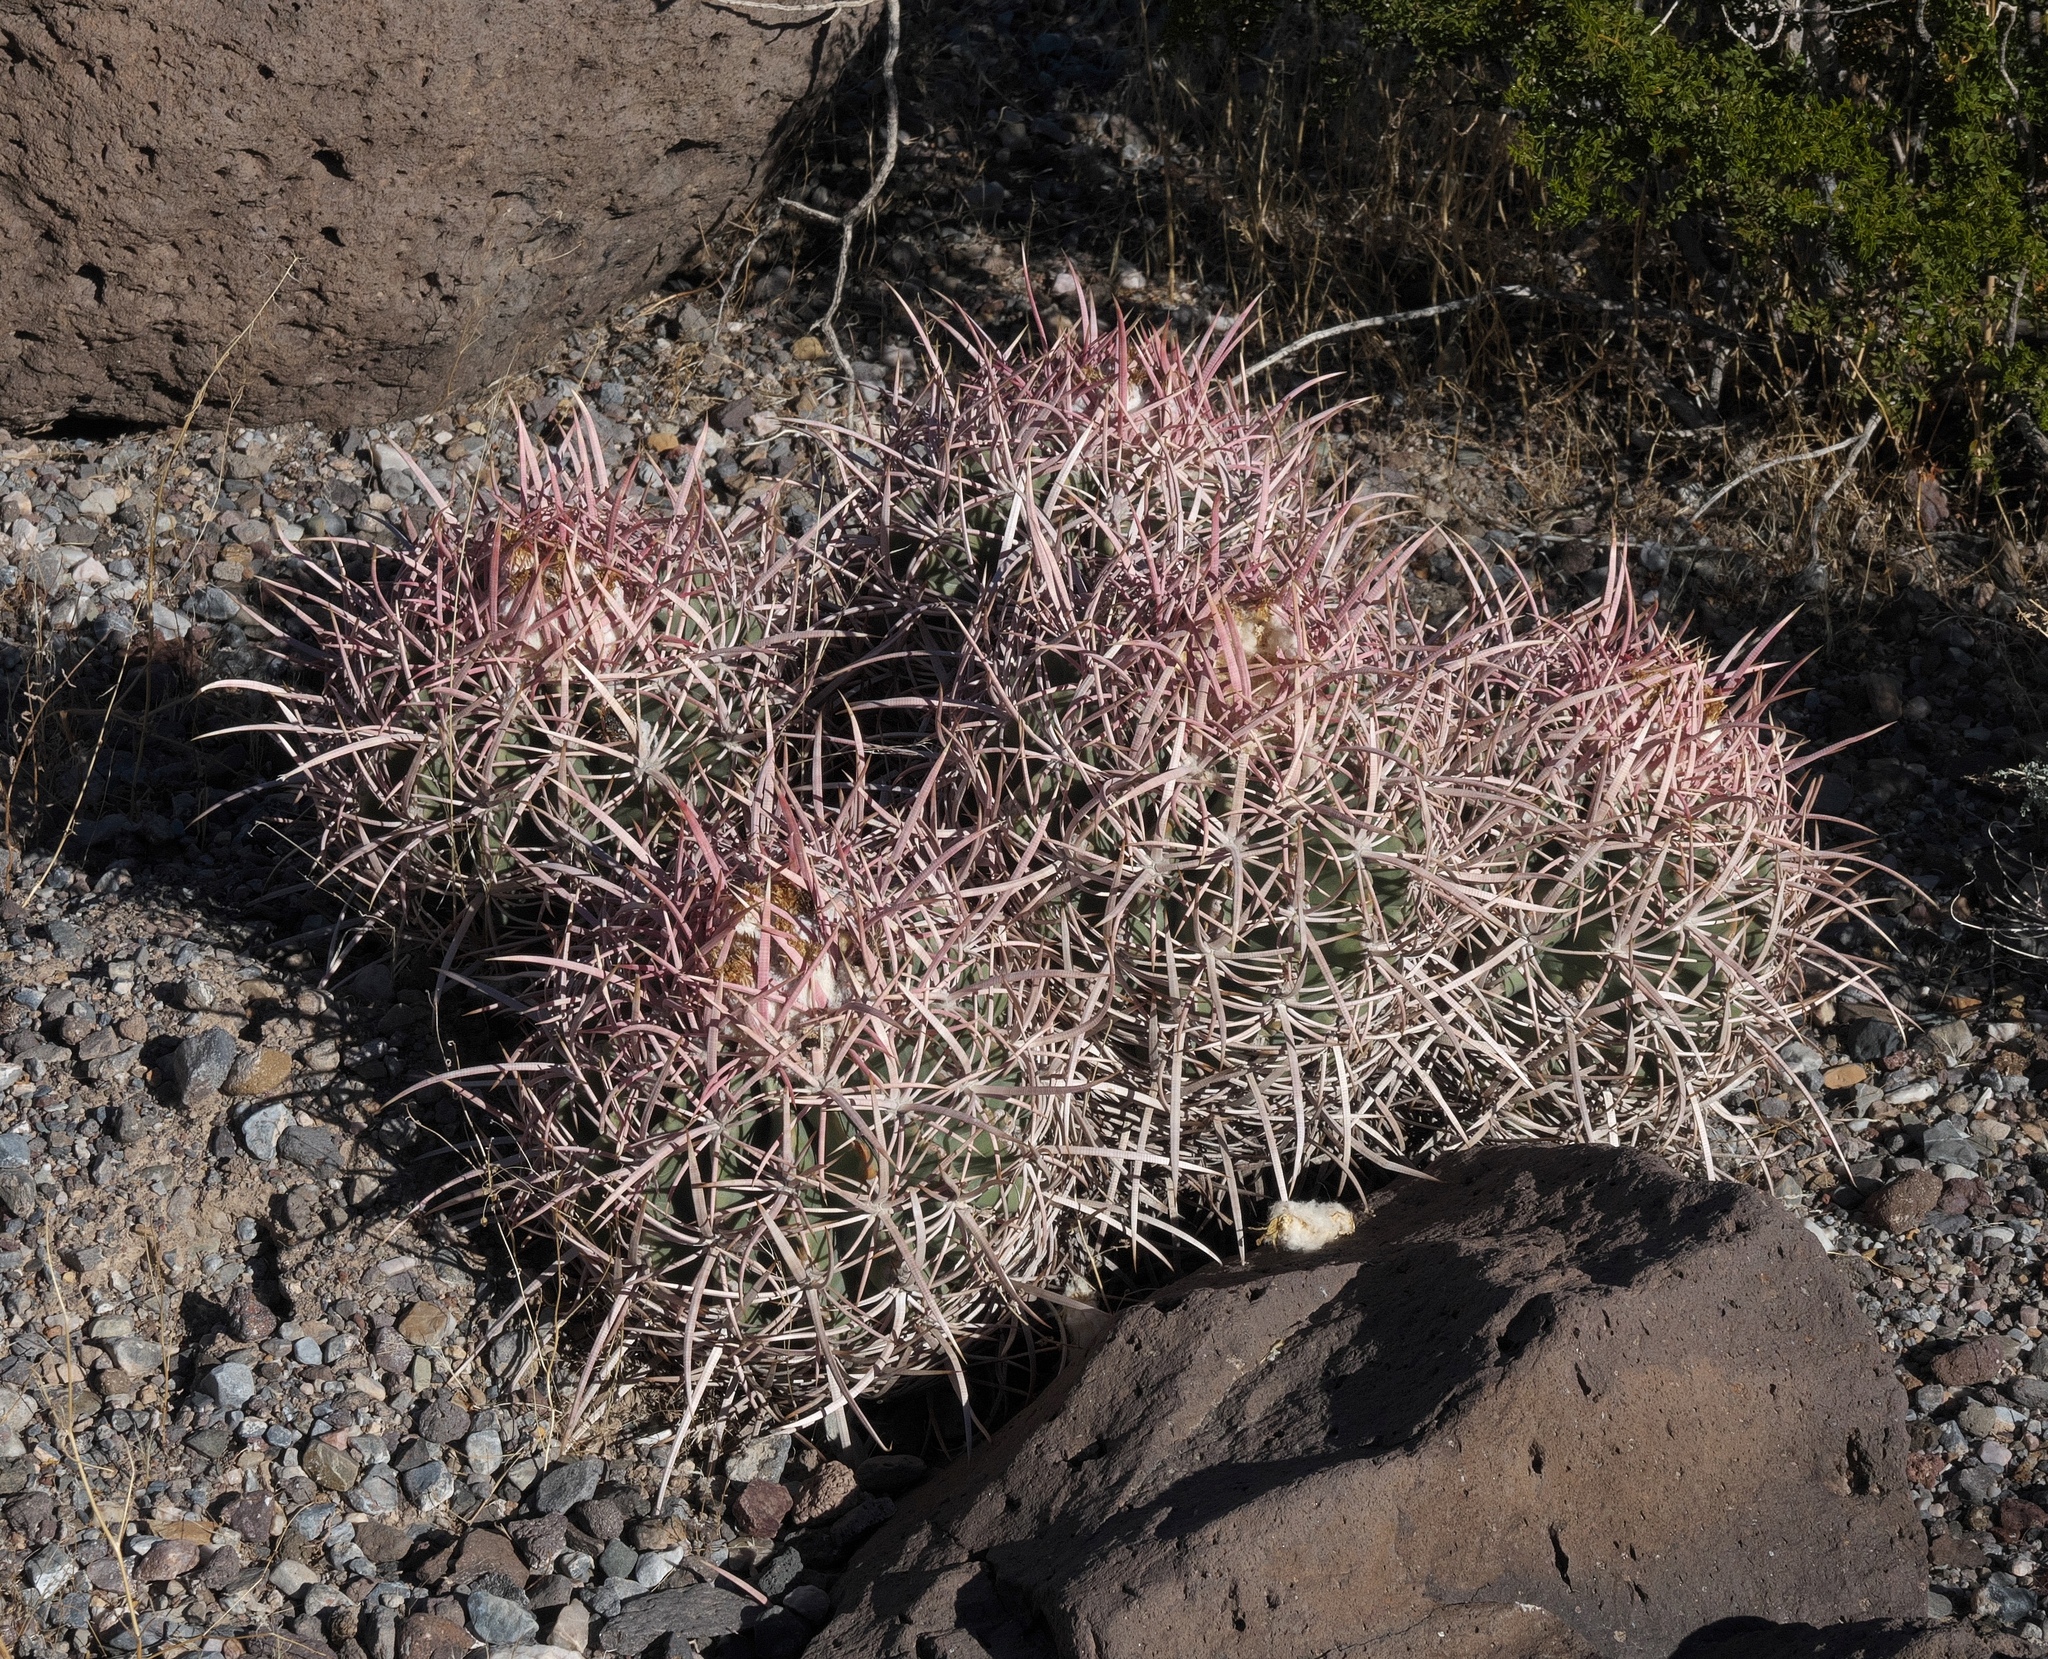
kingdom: Plantae
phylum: Tracheophyta
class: Magnoliopsida
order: Caryophyllales
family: Cactaceae
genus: Echinocactus
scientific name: Echinocactus polycephalus
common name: Cottontop cactus
